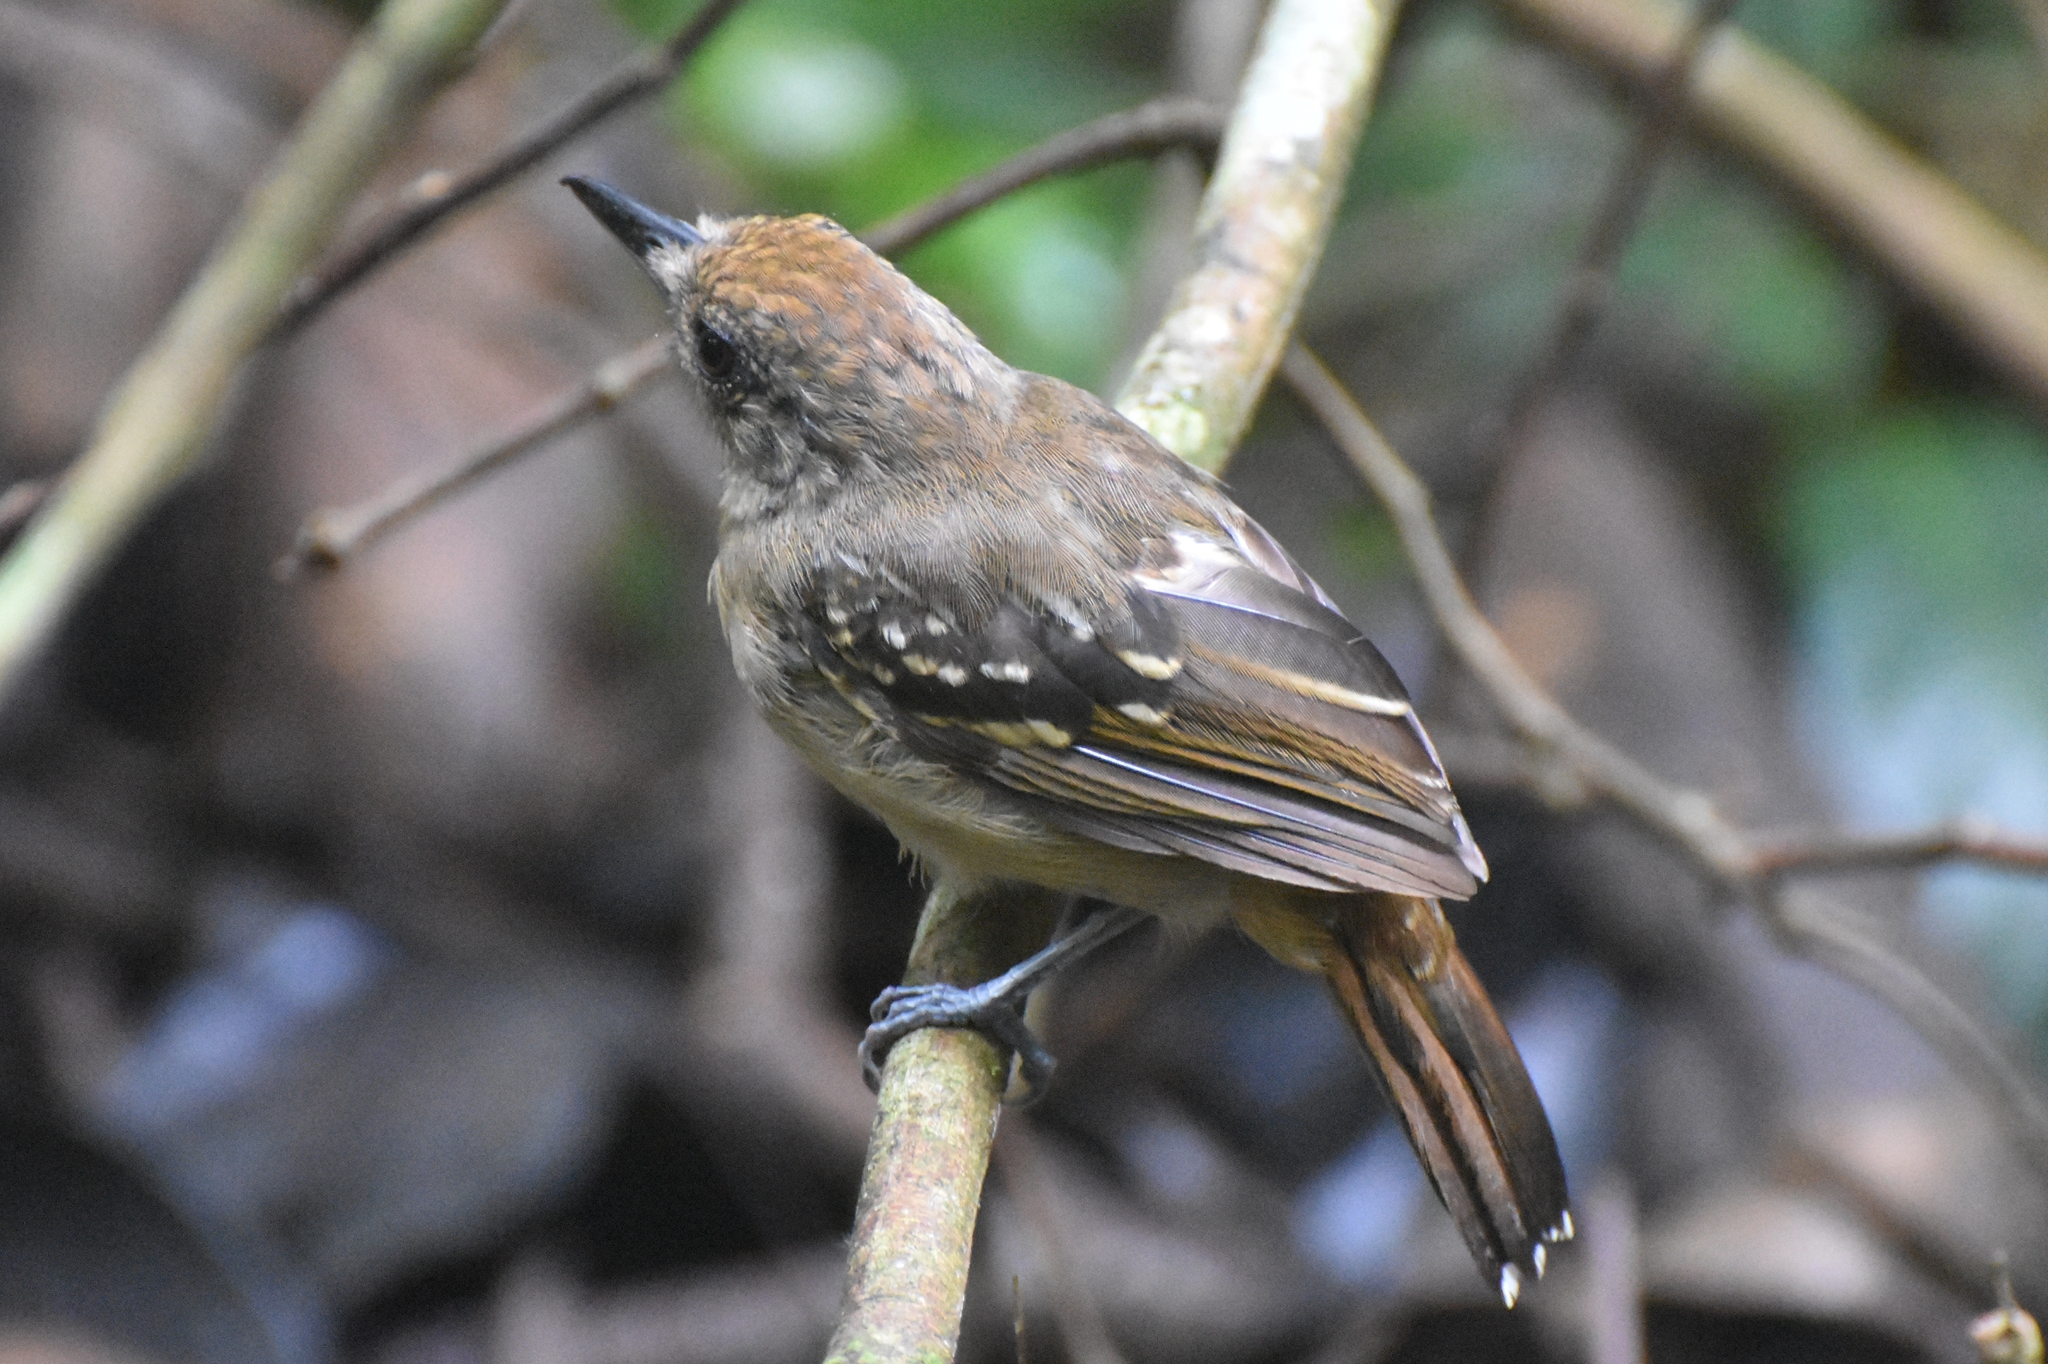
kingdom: Animalia
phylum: Chordata
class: Aves
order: Passeriformes
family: Thamnophilidae
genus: Thamnophilus
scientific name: Thamnophilus atrinucha
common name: Black-crowned antshrike
